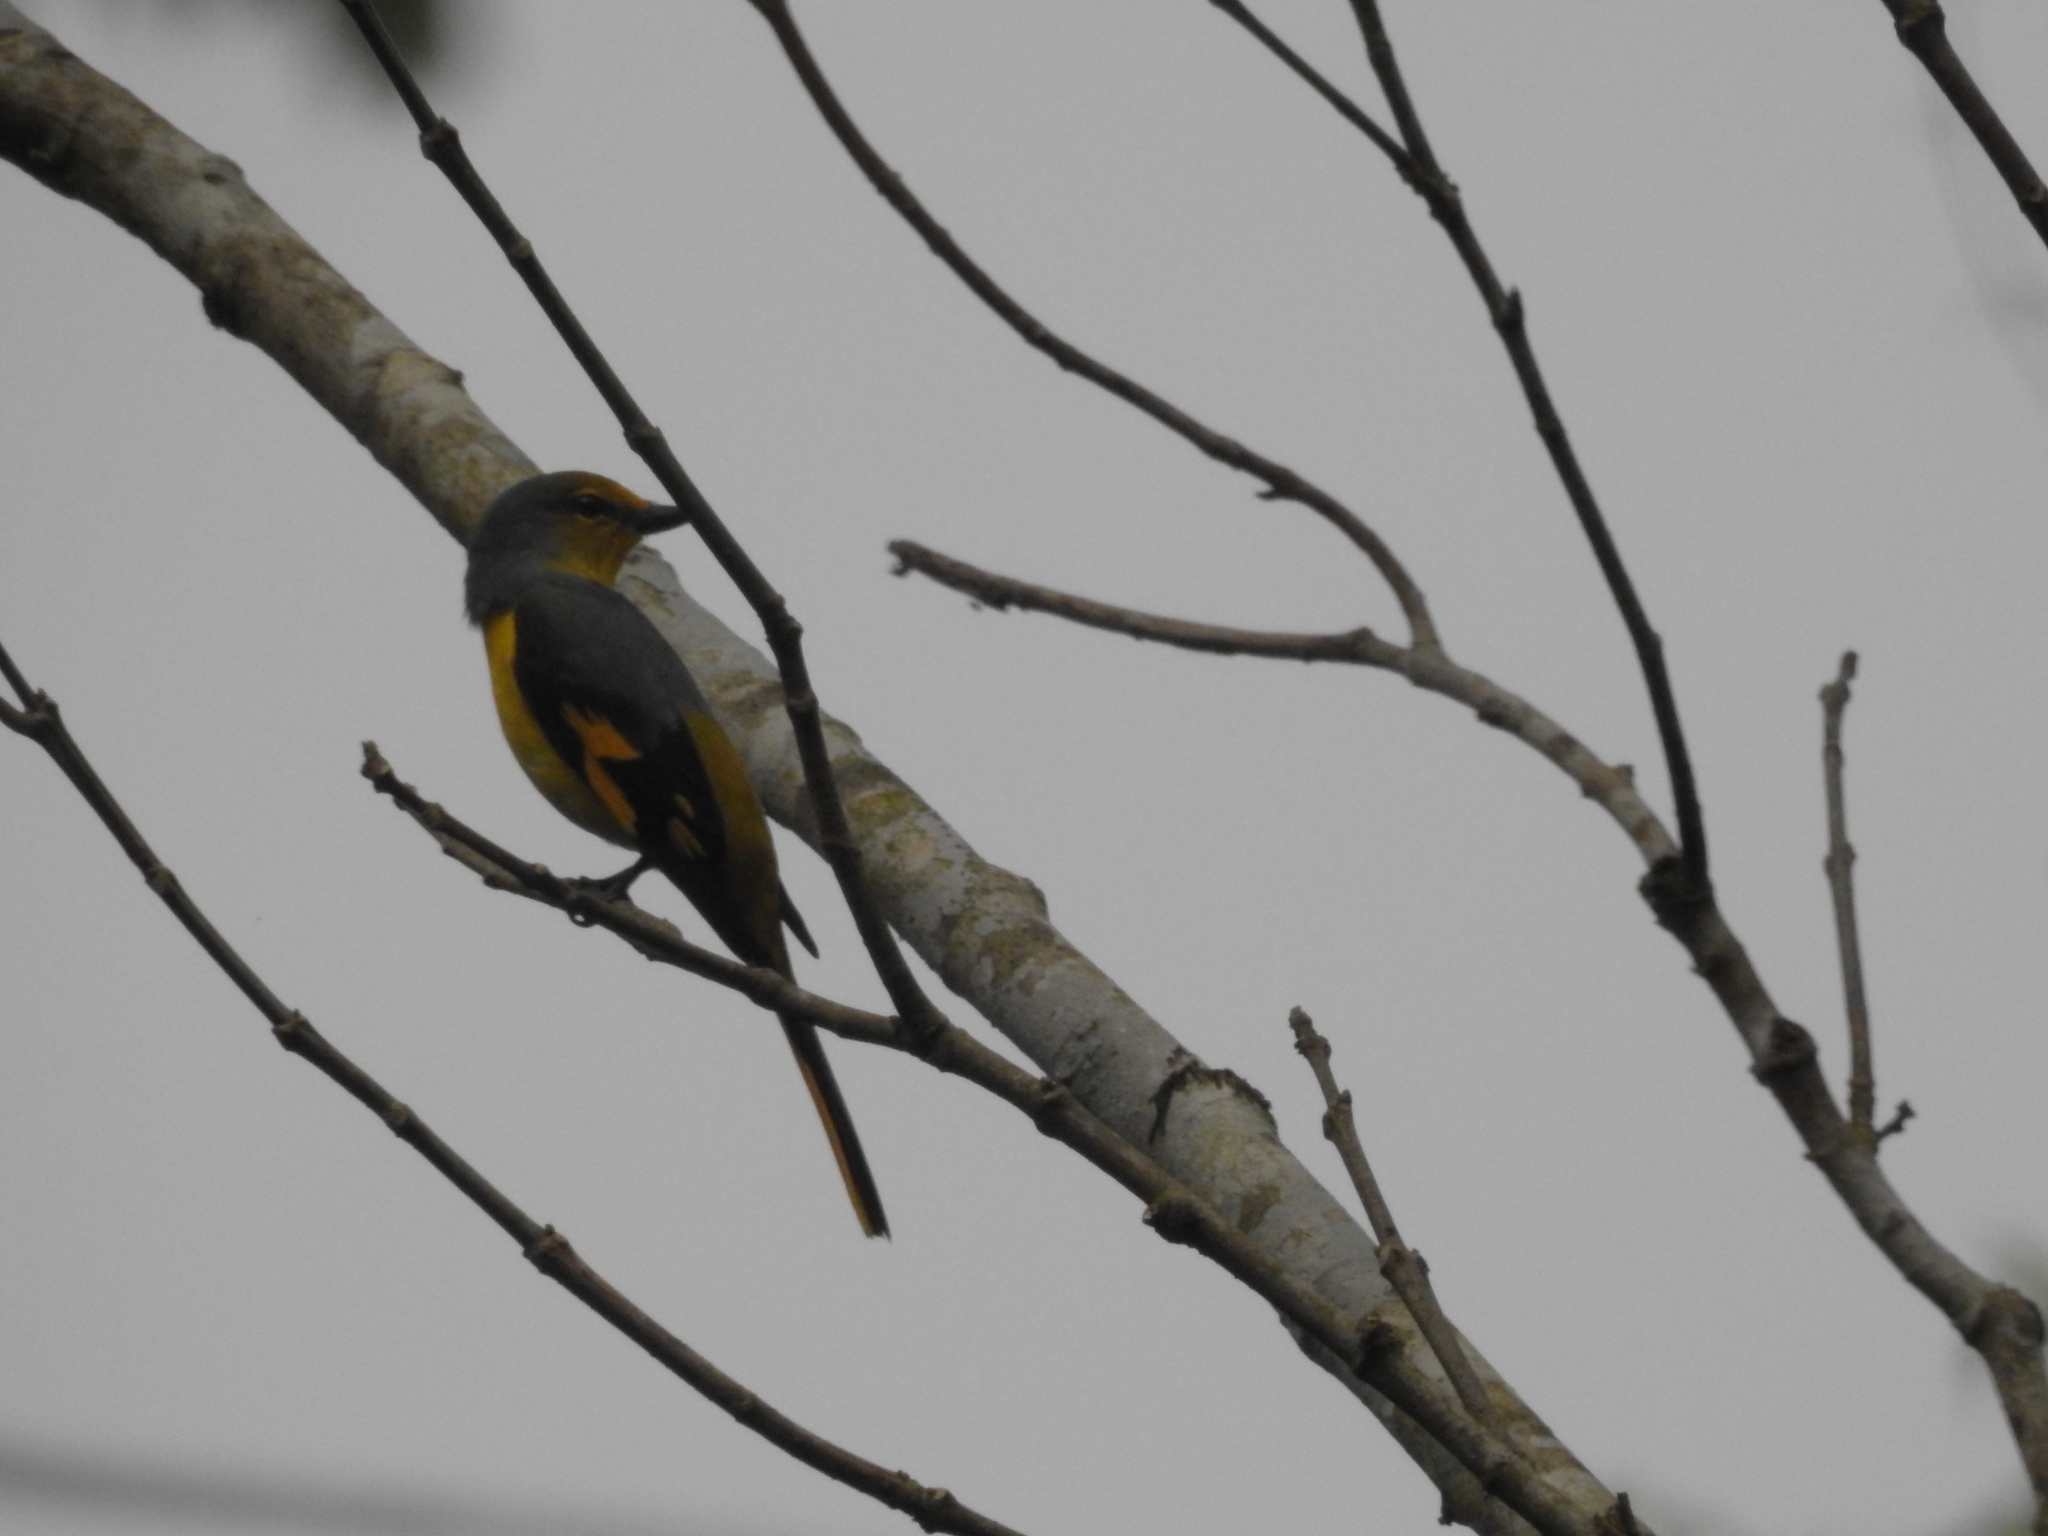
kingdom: Animalia
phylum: Chordata
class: Aves
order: Passeriformes
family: Campephagidae
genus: Pericrocotus
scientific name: Pericrocotus speciosus
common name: Scarlet minivet
